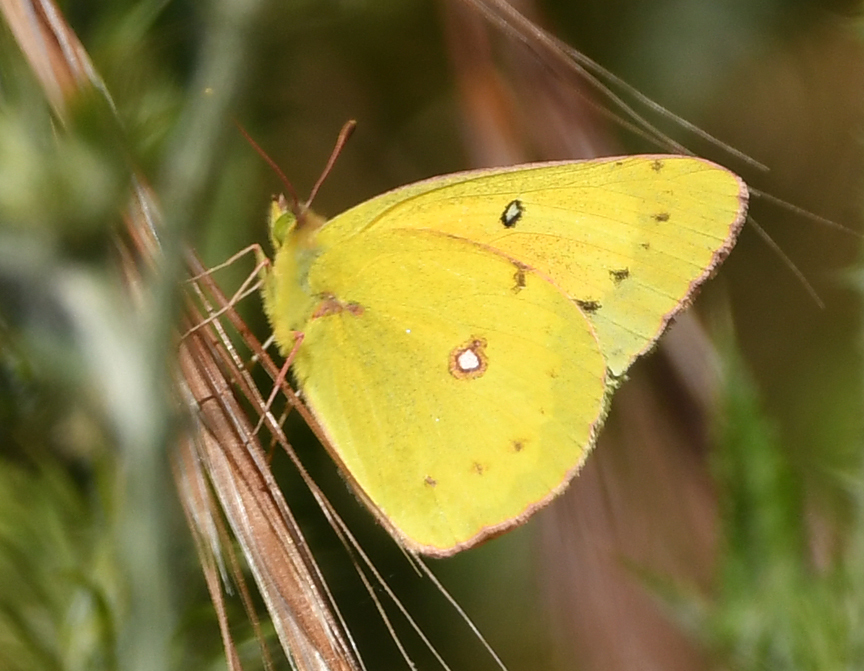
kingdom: Animalia
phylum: Arthropoda
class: Insecta
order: Lepidoptera
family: Pieridae
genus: Colias
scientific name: Colias eurytheme
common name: Alfalfa butterfly
